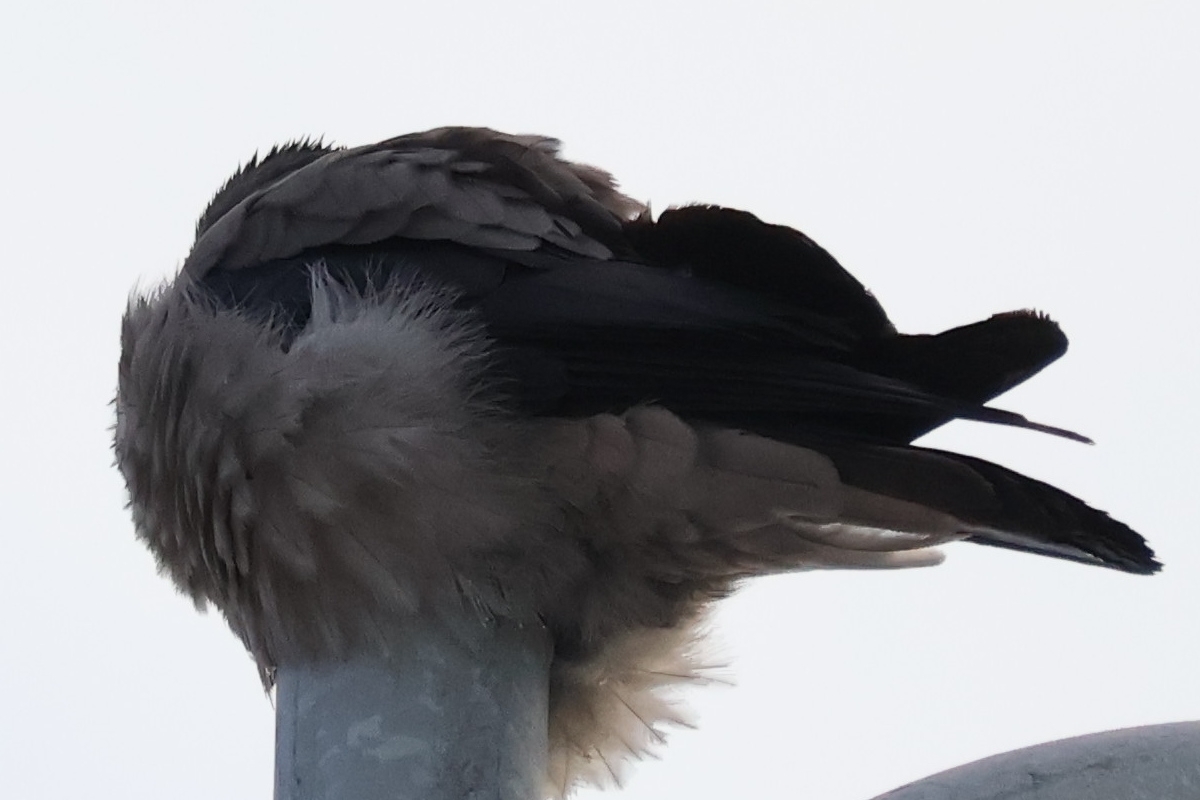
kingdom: Animalia
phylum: Chordata
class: Aves
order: Passeriformes
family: Corvidae
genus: Corvus
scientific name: Corvus cornix
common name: Hooded crow
